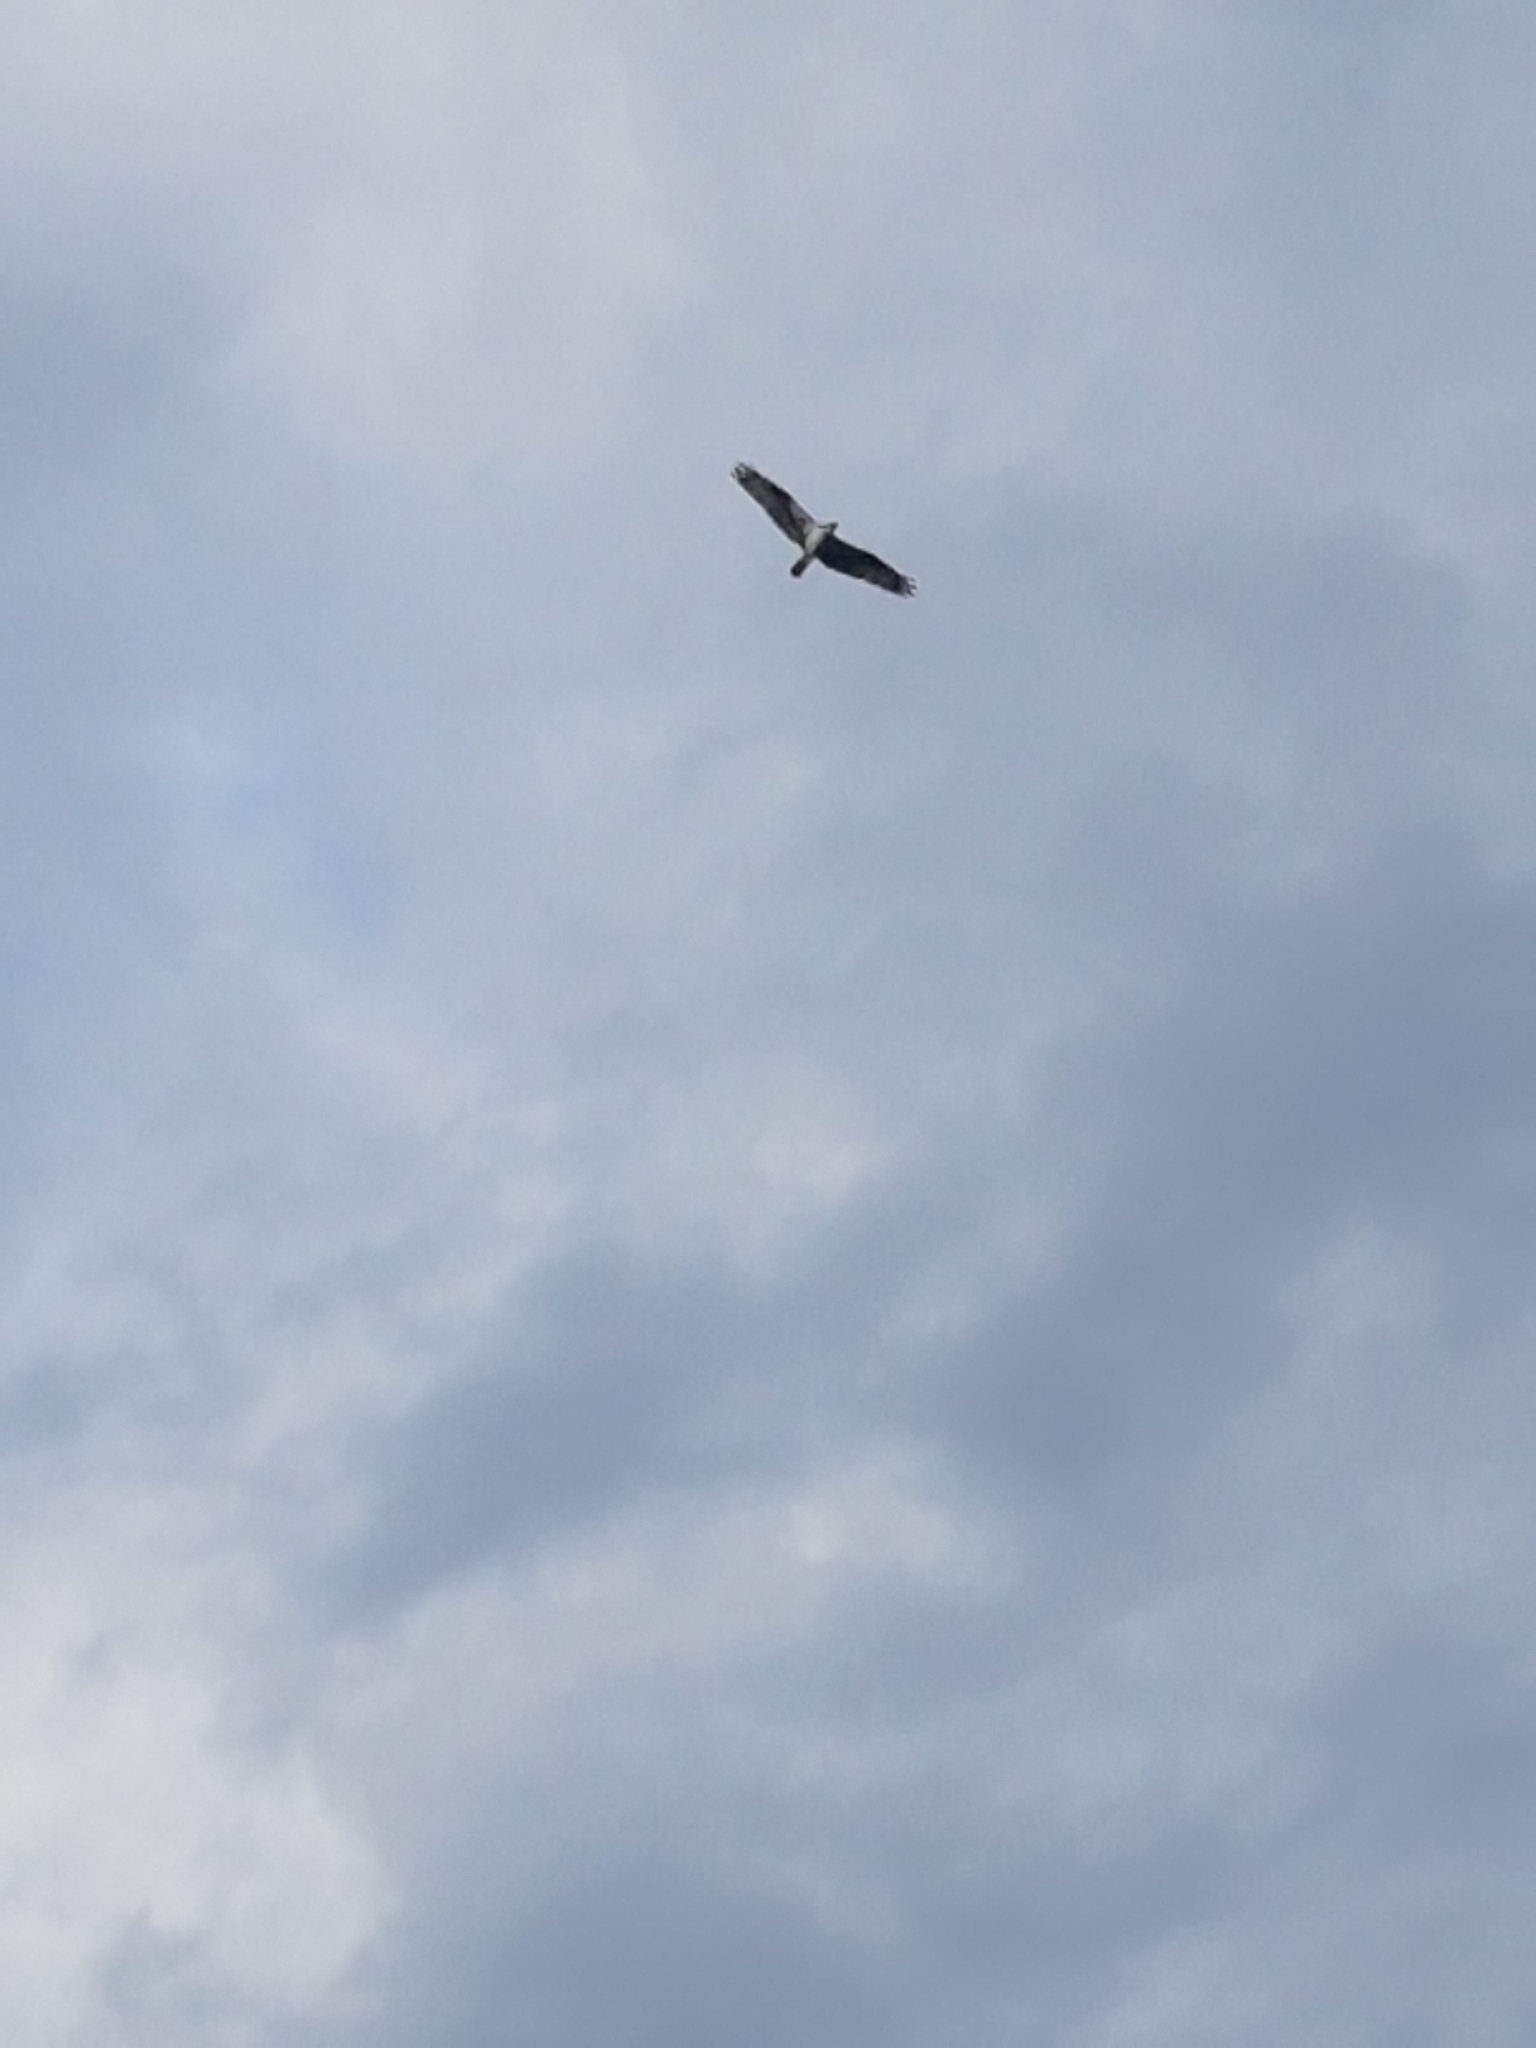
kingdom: Animalia
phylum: Chordata
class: Aves
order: Accipitriformes
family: Pandionidae
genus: Pandion
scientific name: Pandion haliaetus
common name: Osprey
